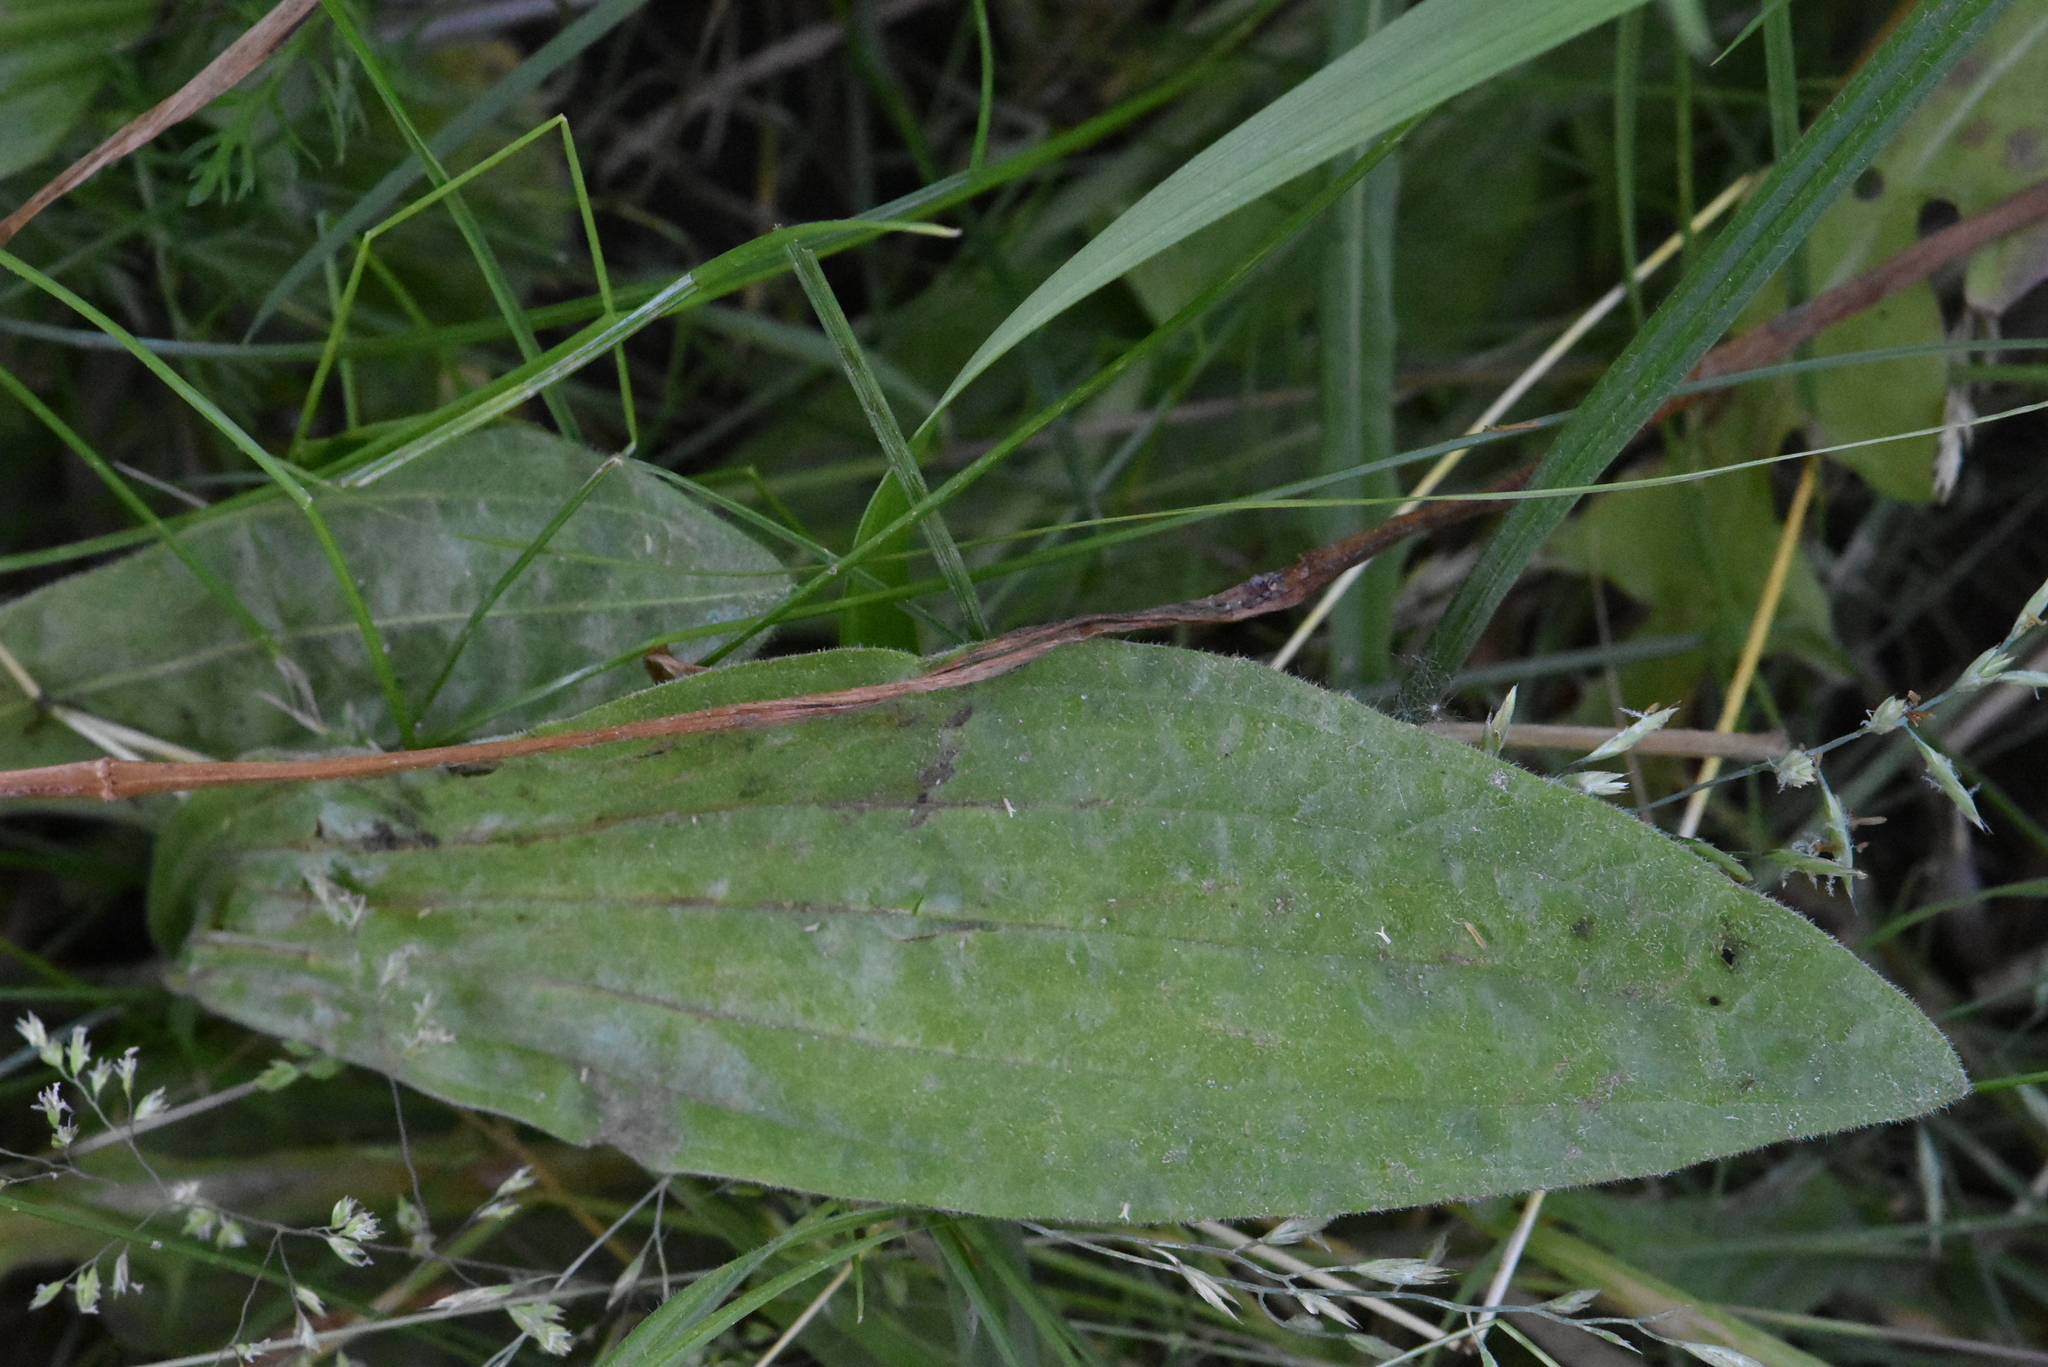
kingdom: Plantae
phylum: Tracheophyta
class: Magnoliopsida
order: Lamiales
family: Plantaginaceae
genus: Plantago
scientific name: Plantago media
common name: Hoary plantain
